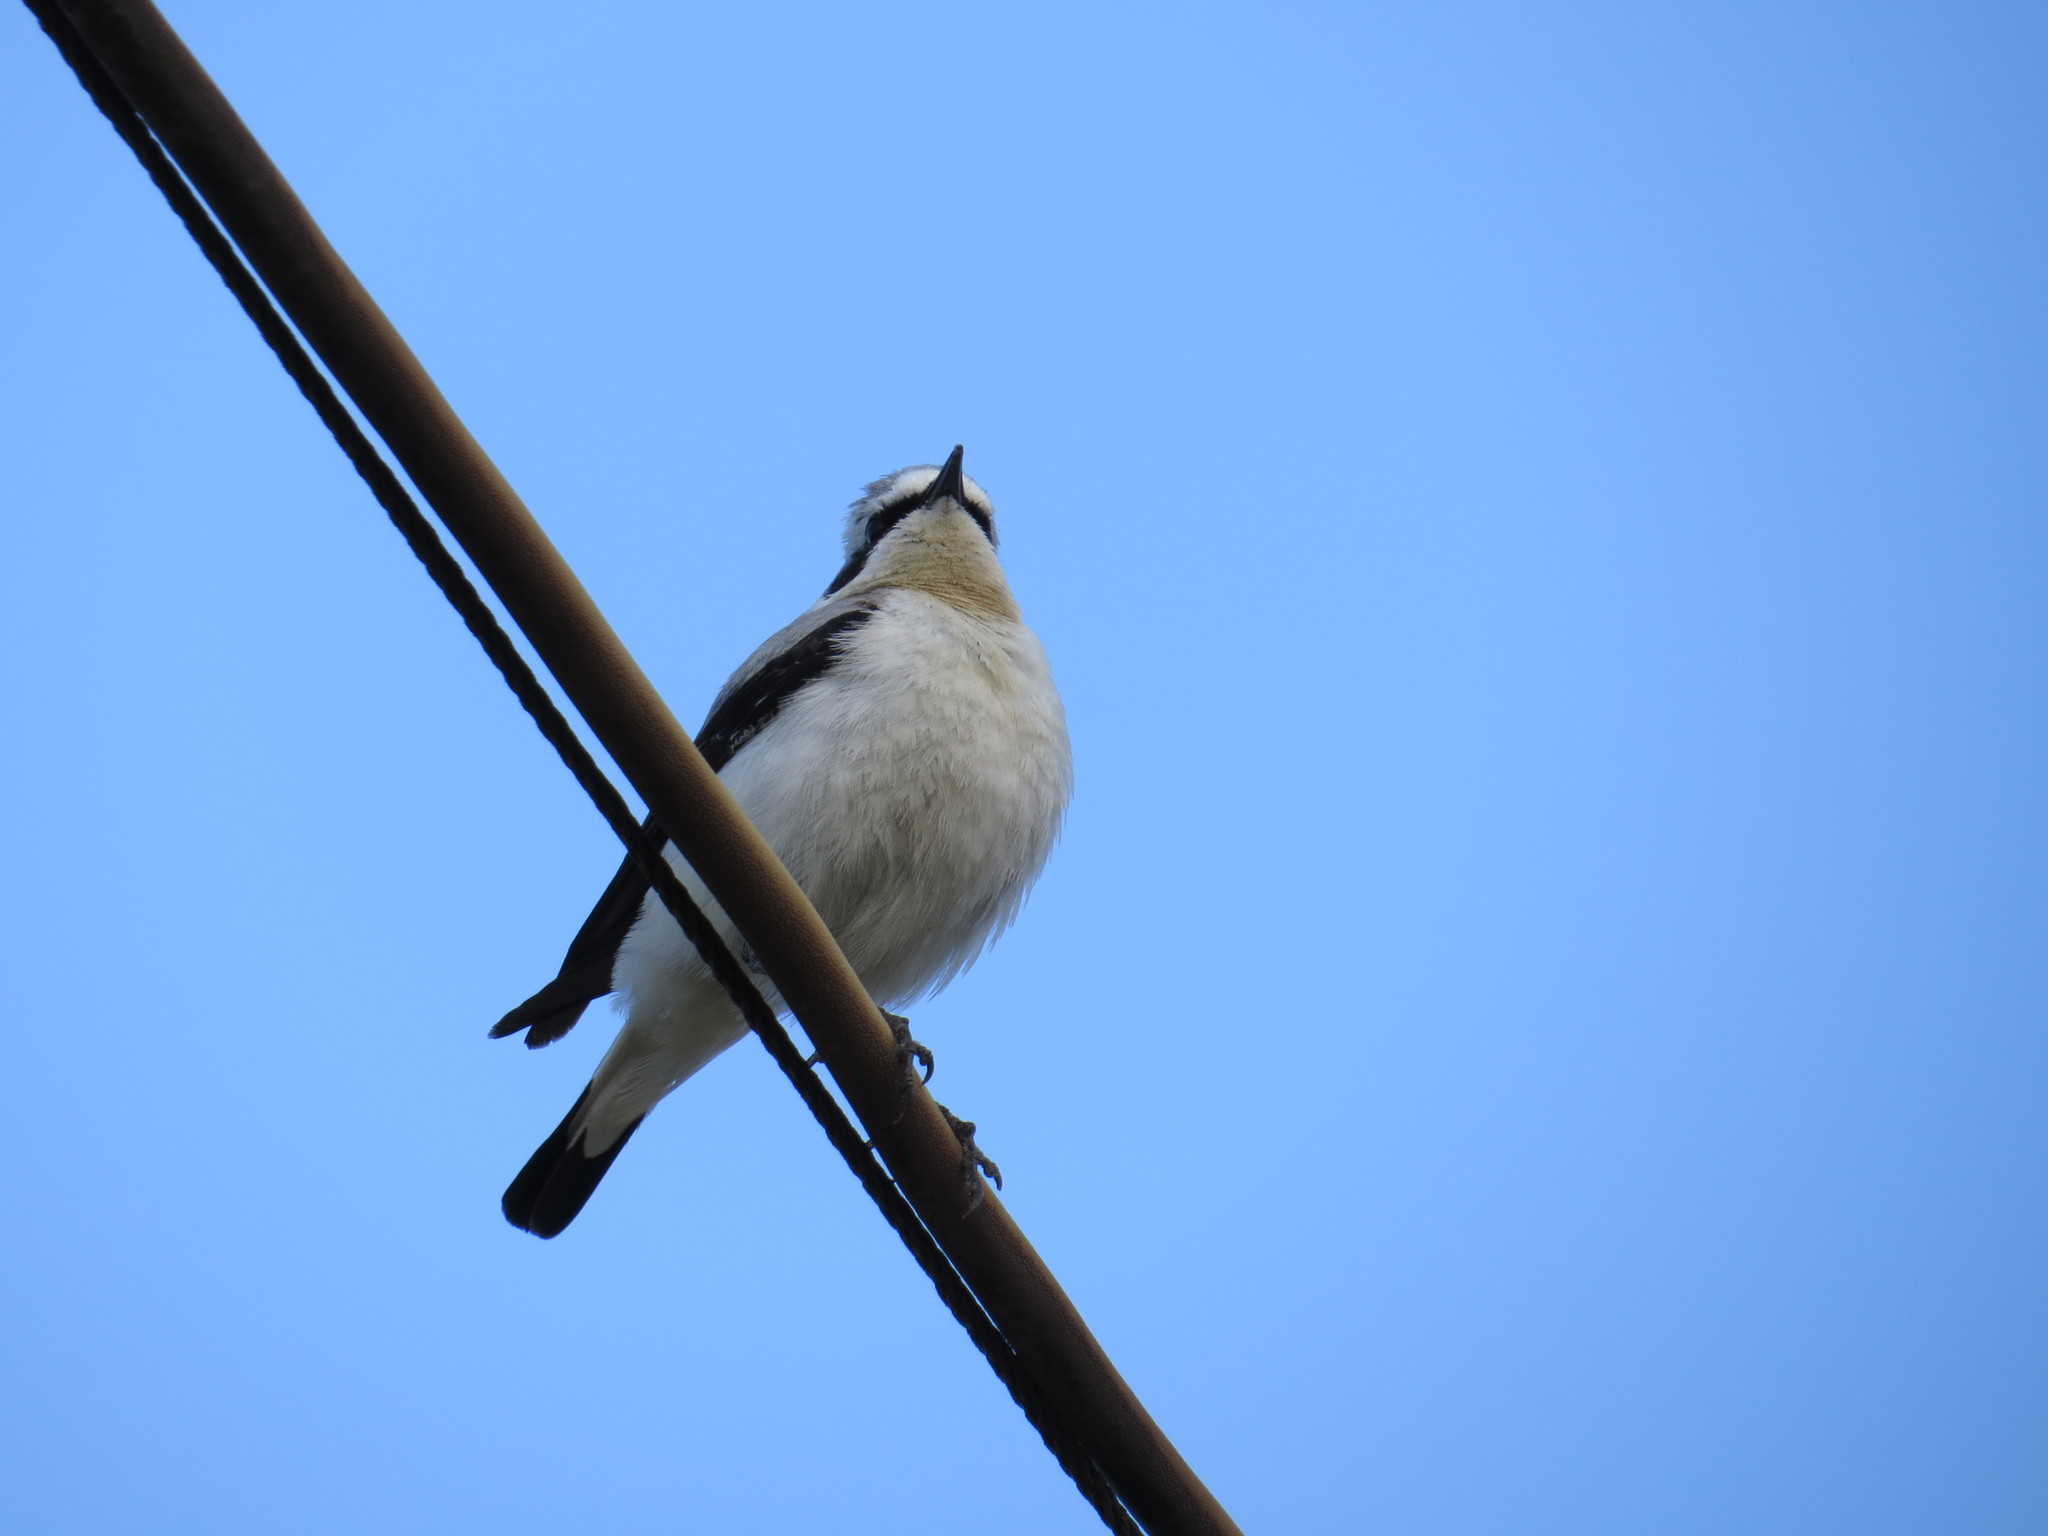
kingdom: Animalia
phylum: Chordata
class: Aves
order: Passeriformes
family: Muscicapidae
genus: Oenanthe
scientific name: Oenanthe oenanthe
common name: Northern wheatear
